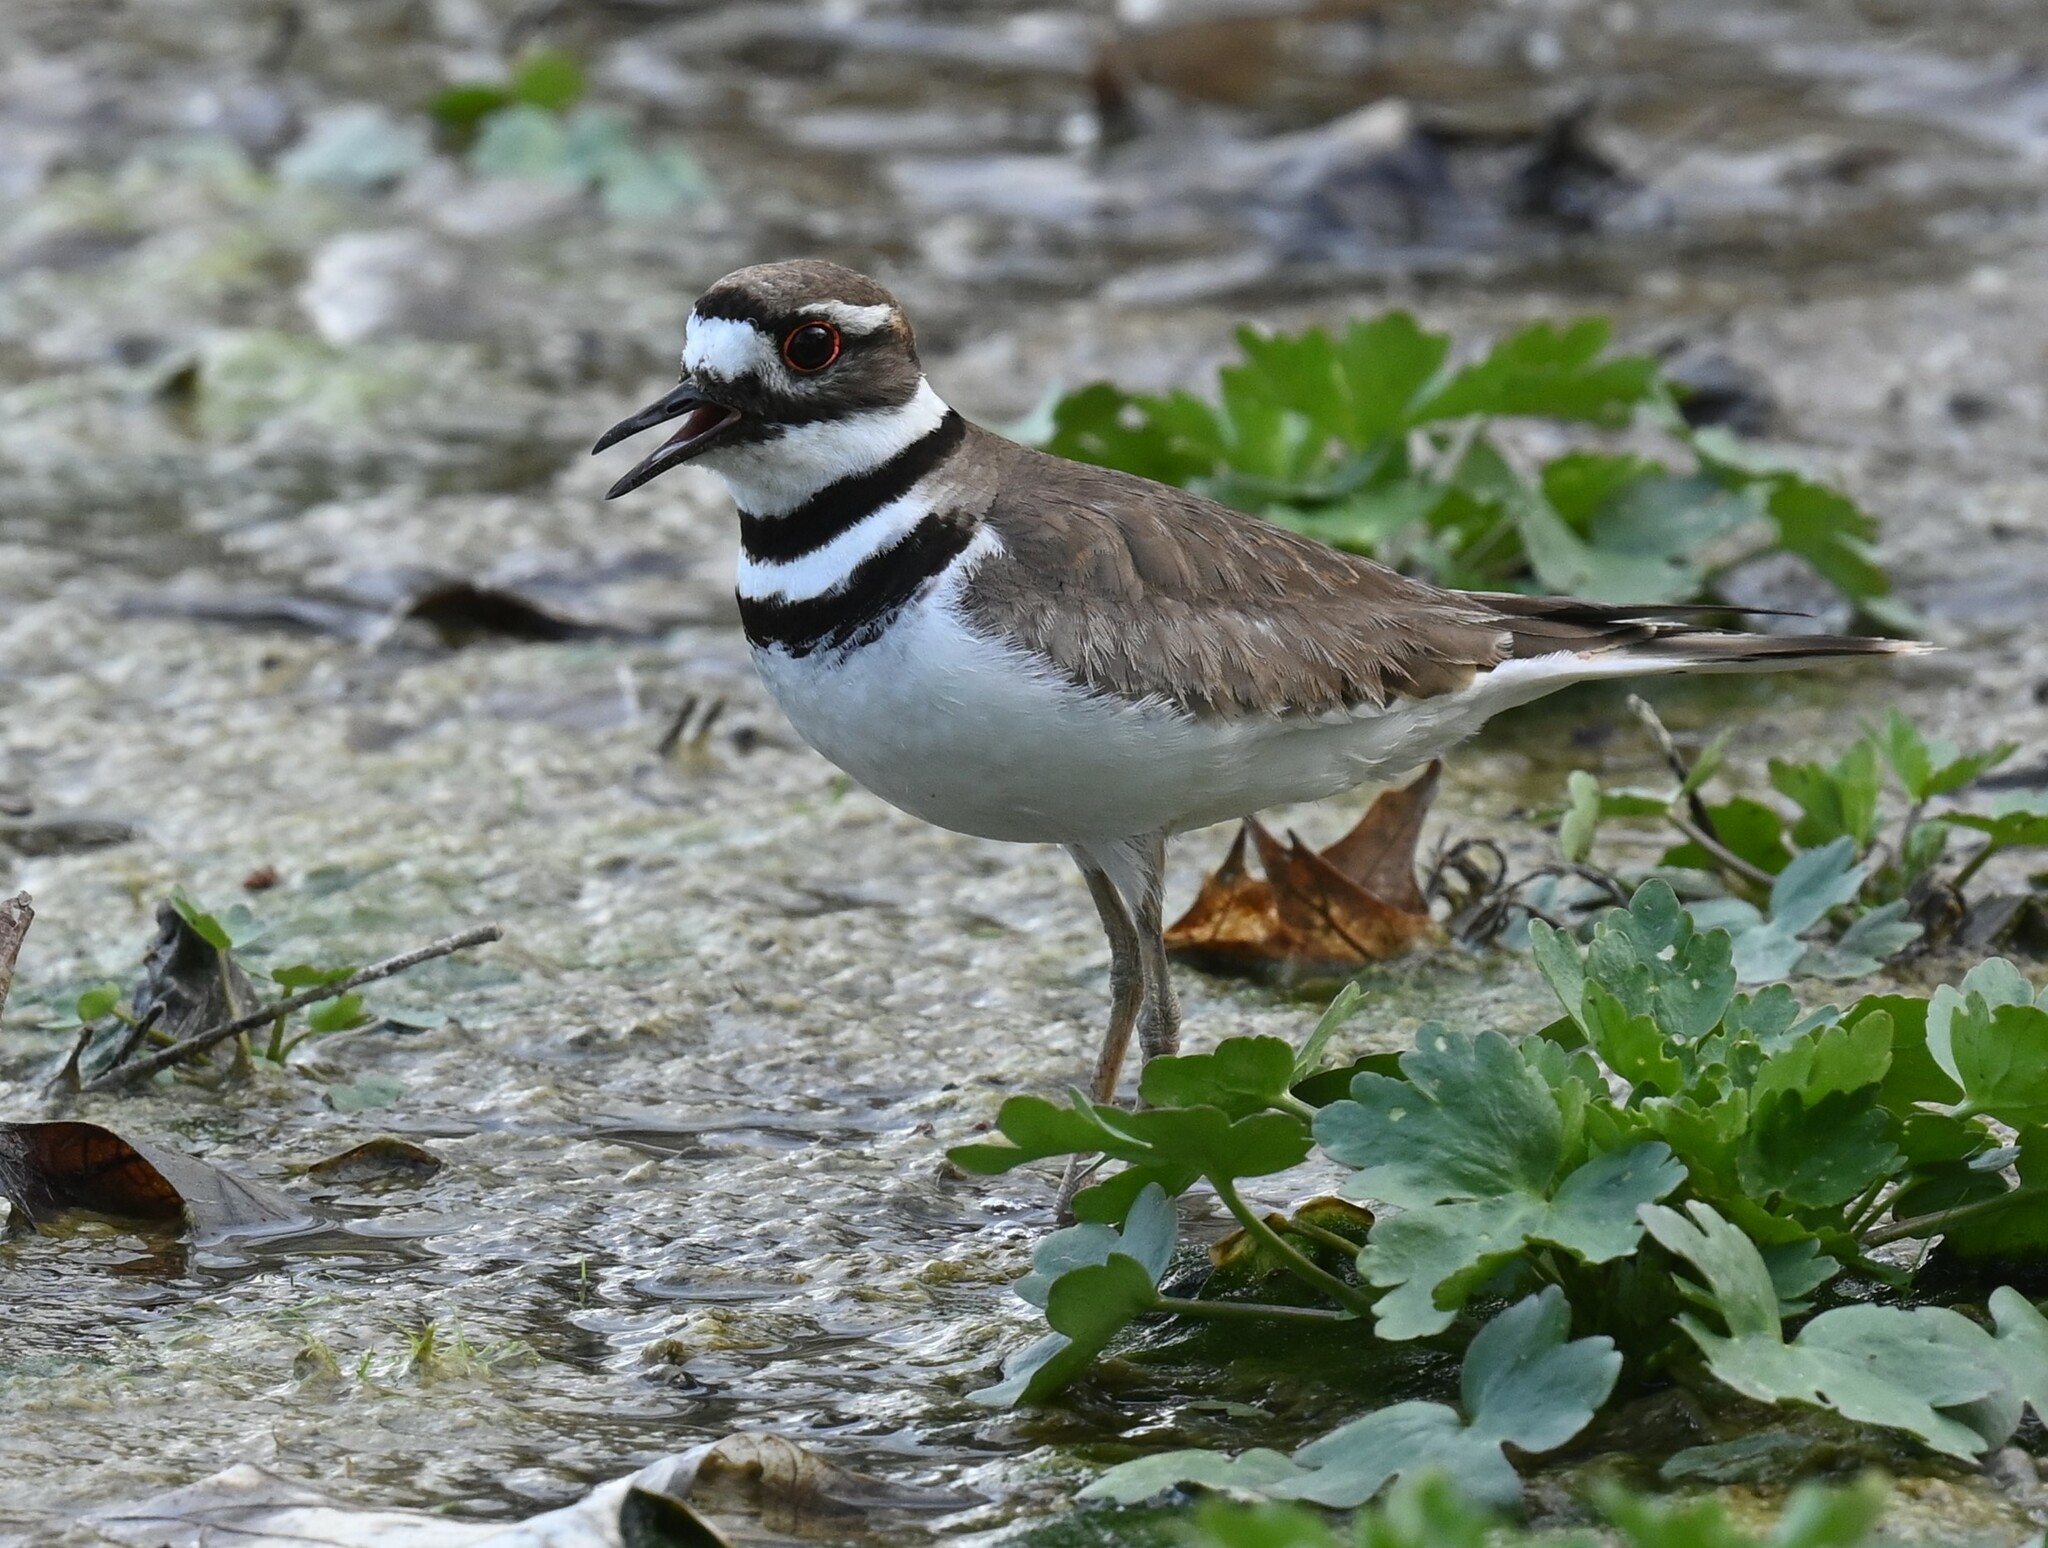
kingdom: Animalia
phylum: Chordata
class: Aves
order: Charadriiformes
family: Charadriidae
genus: Charadrius
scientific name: Charadrius vociferus
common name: Killdeer
